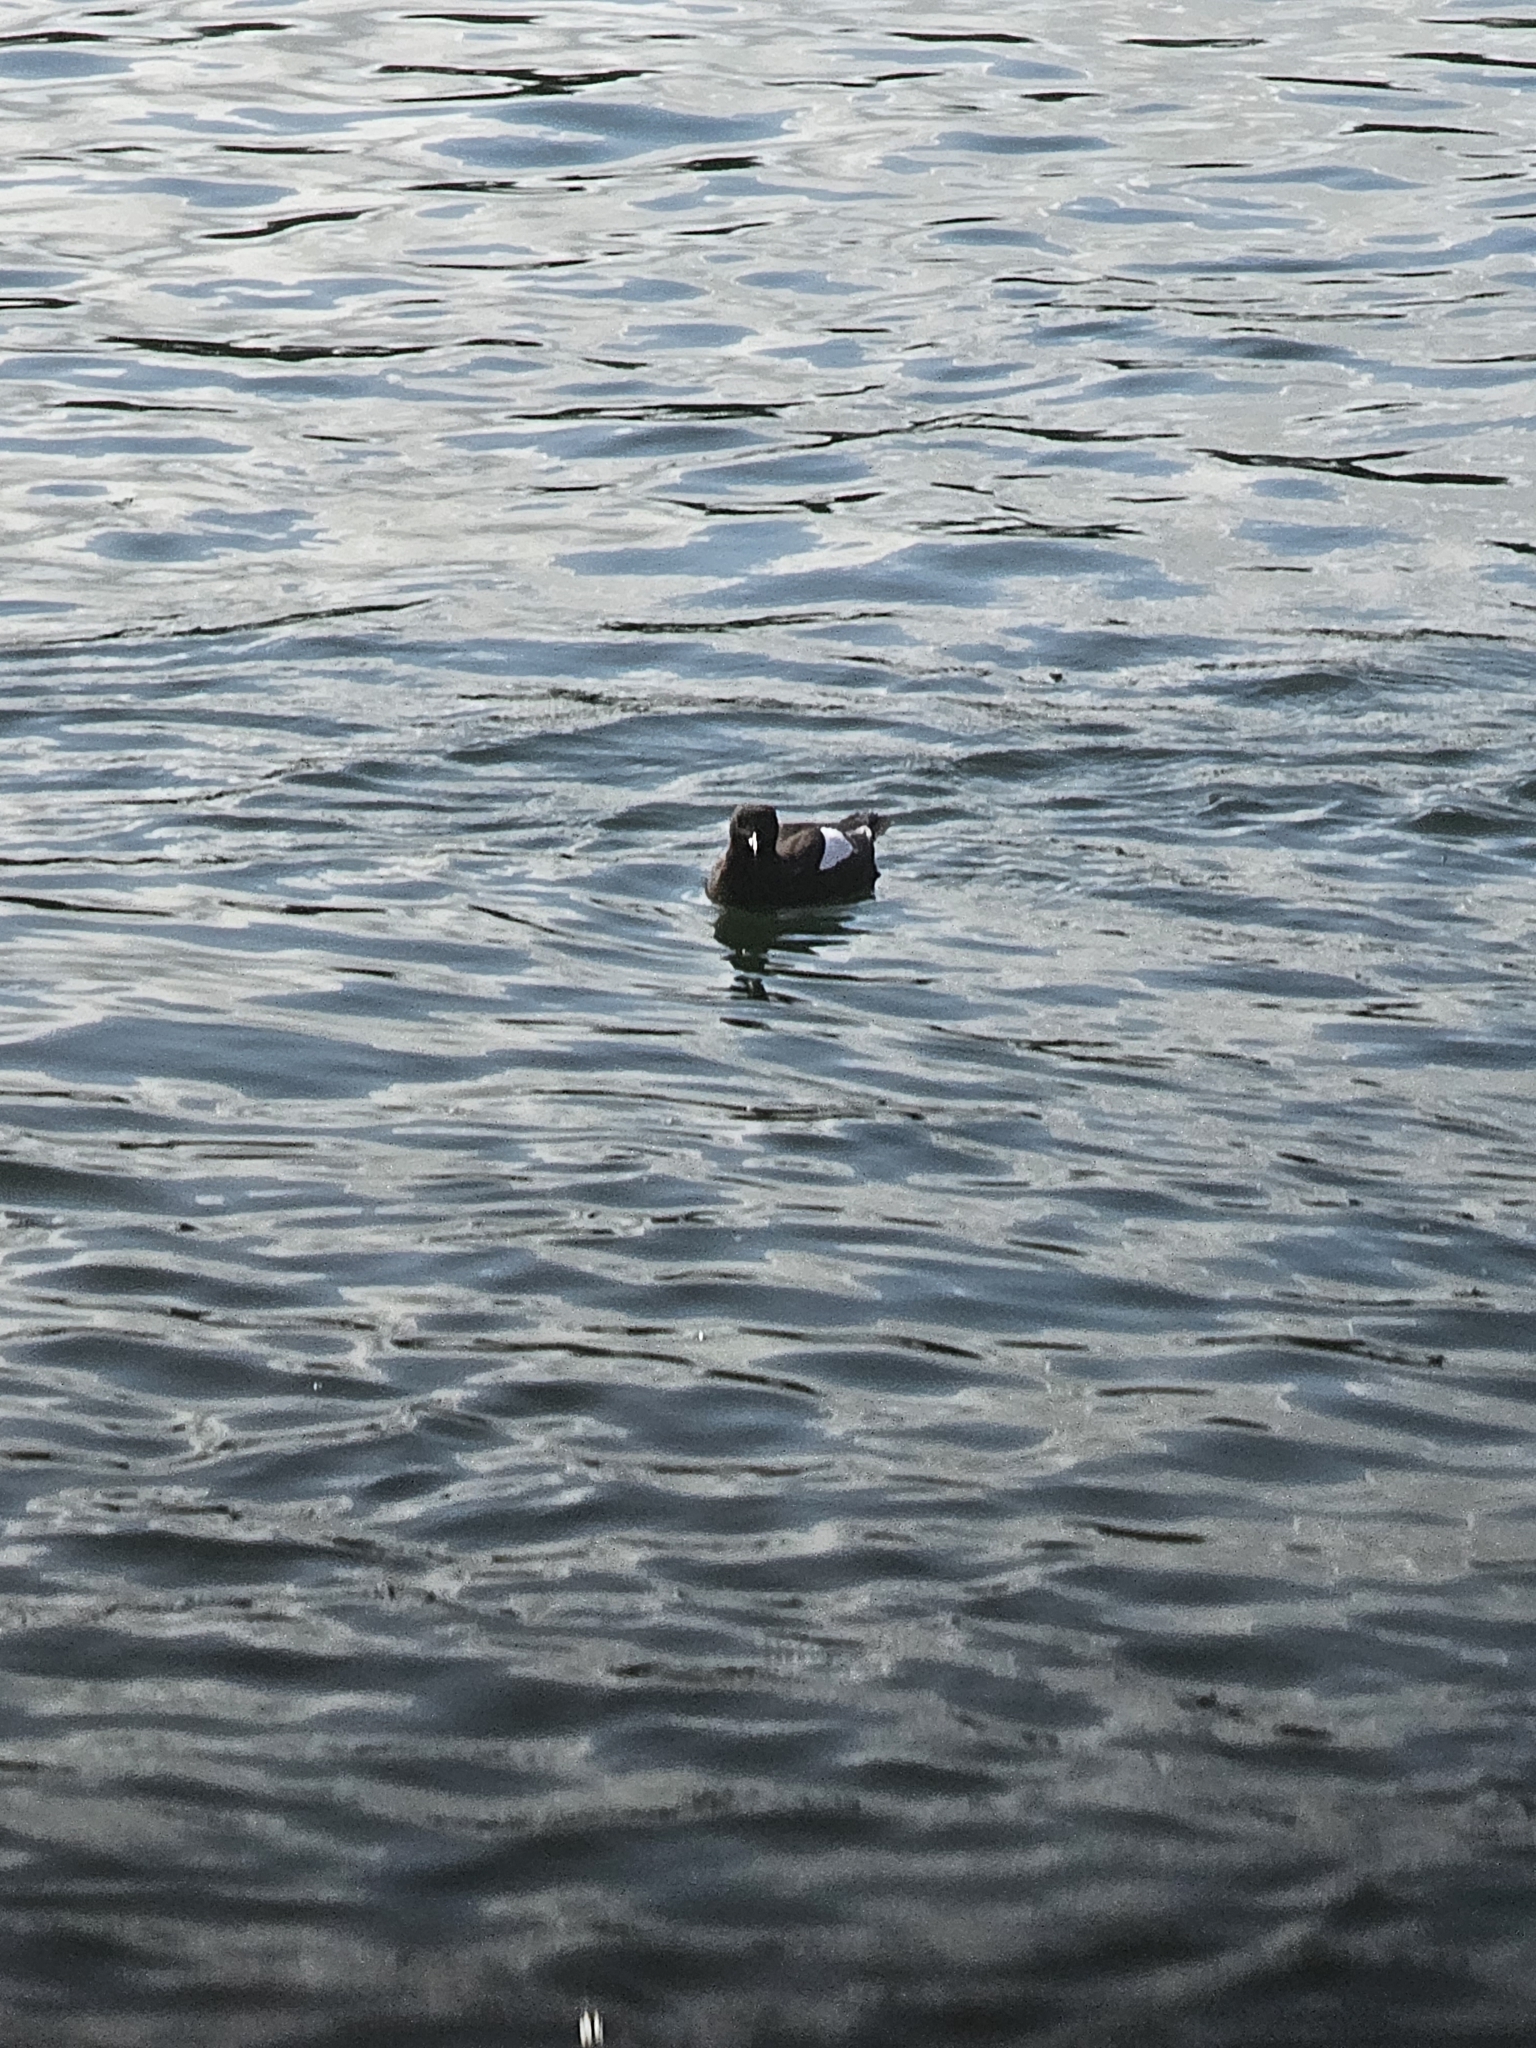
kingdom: Animalia
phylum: Chordata
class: Aves
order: Charadriiformes
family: Alcidae
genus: Cepphus
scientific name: Cepphus grylle
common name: Black guillemot
